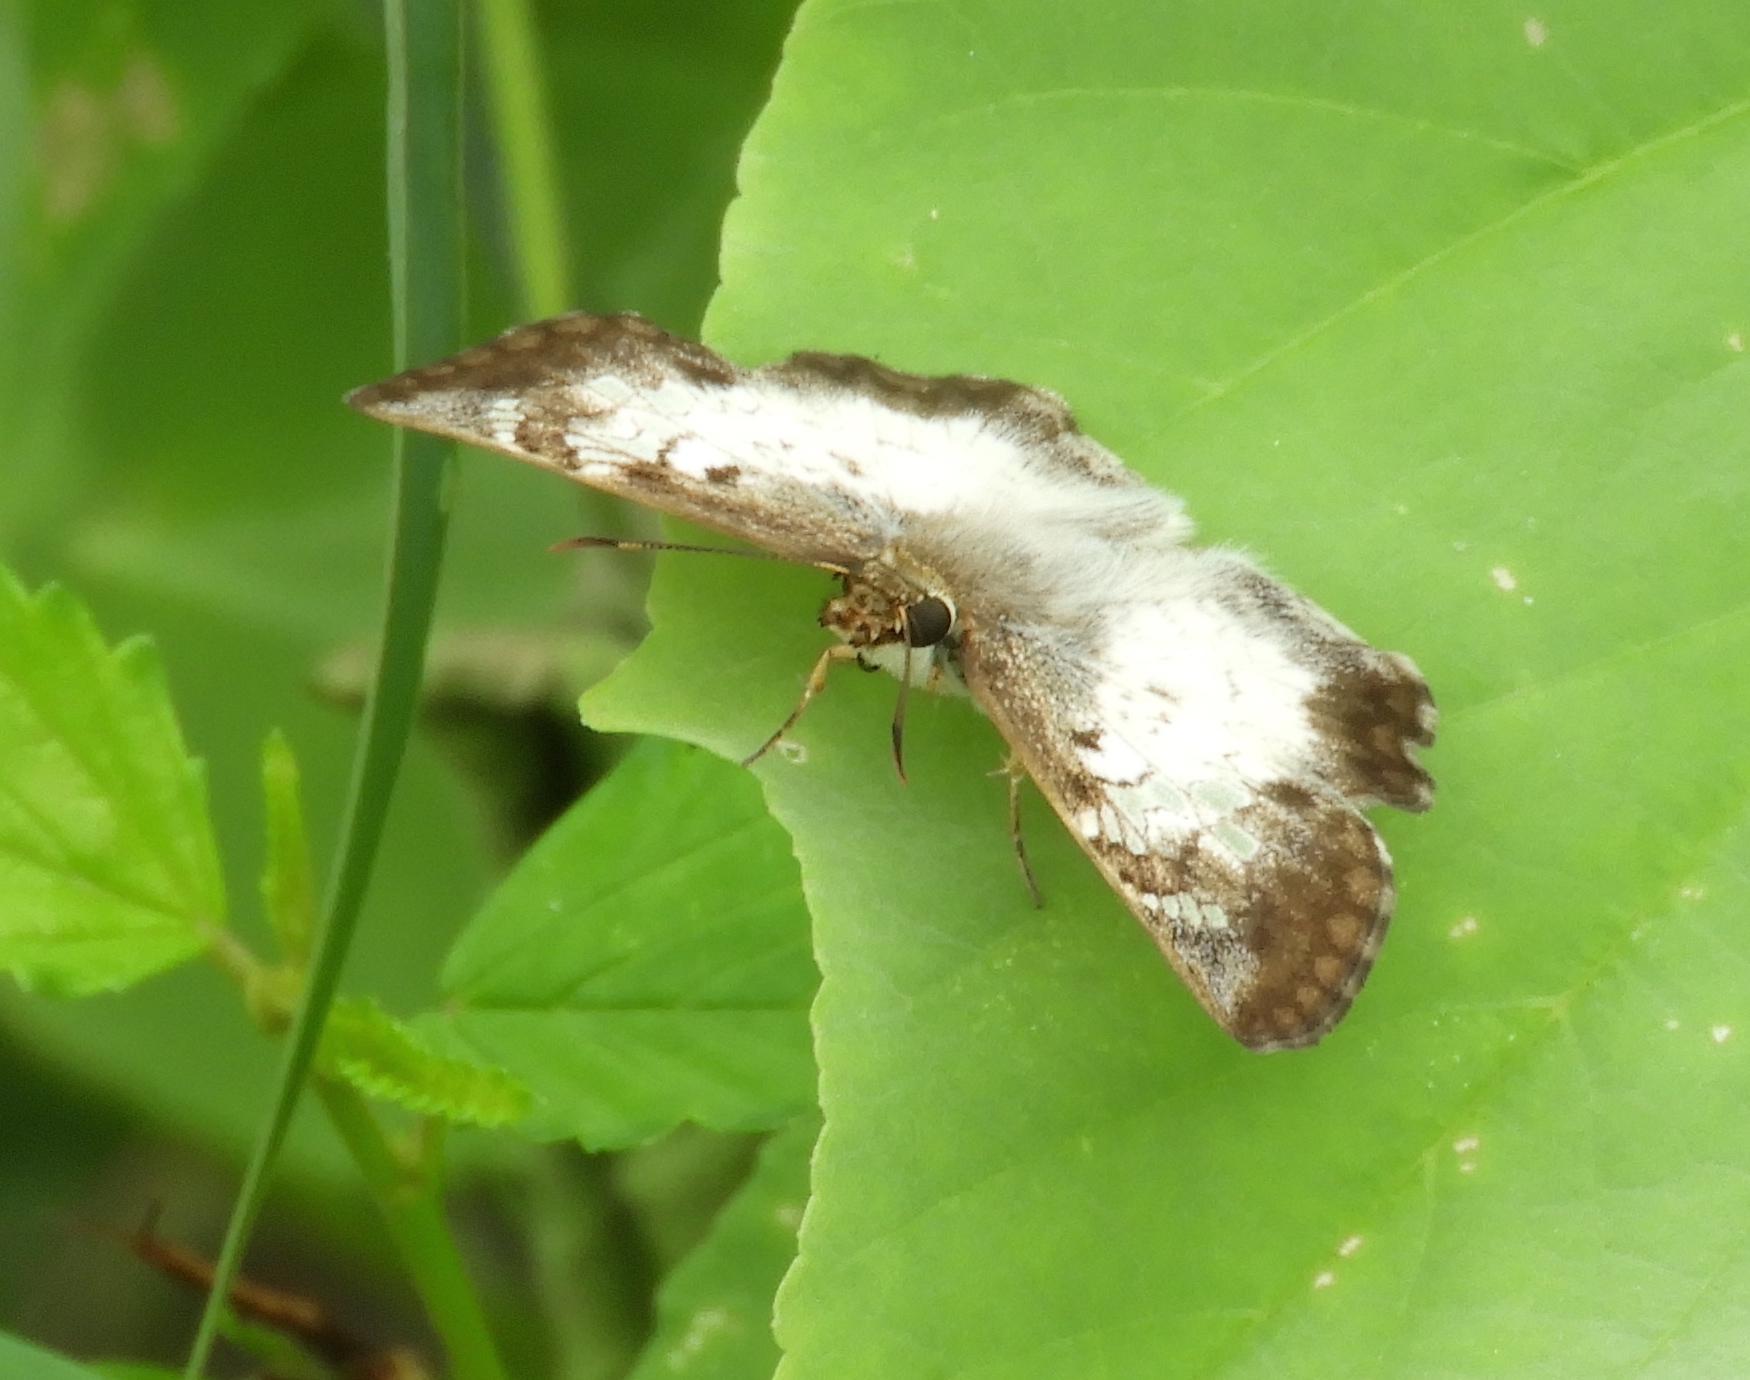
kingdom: Animalia
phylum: Arthropoda
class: Insecta
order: Lepidoptera
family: Hesperiidae
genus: Antigonus
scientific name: Antigonus emorsa
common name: White spurwing
